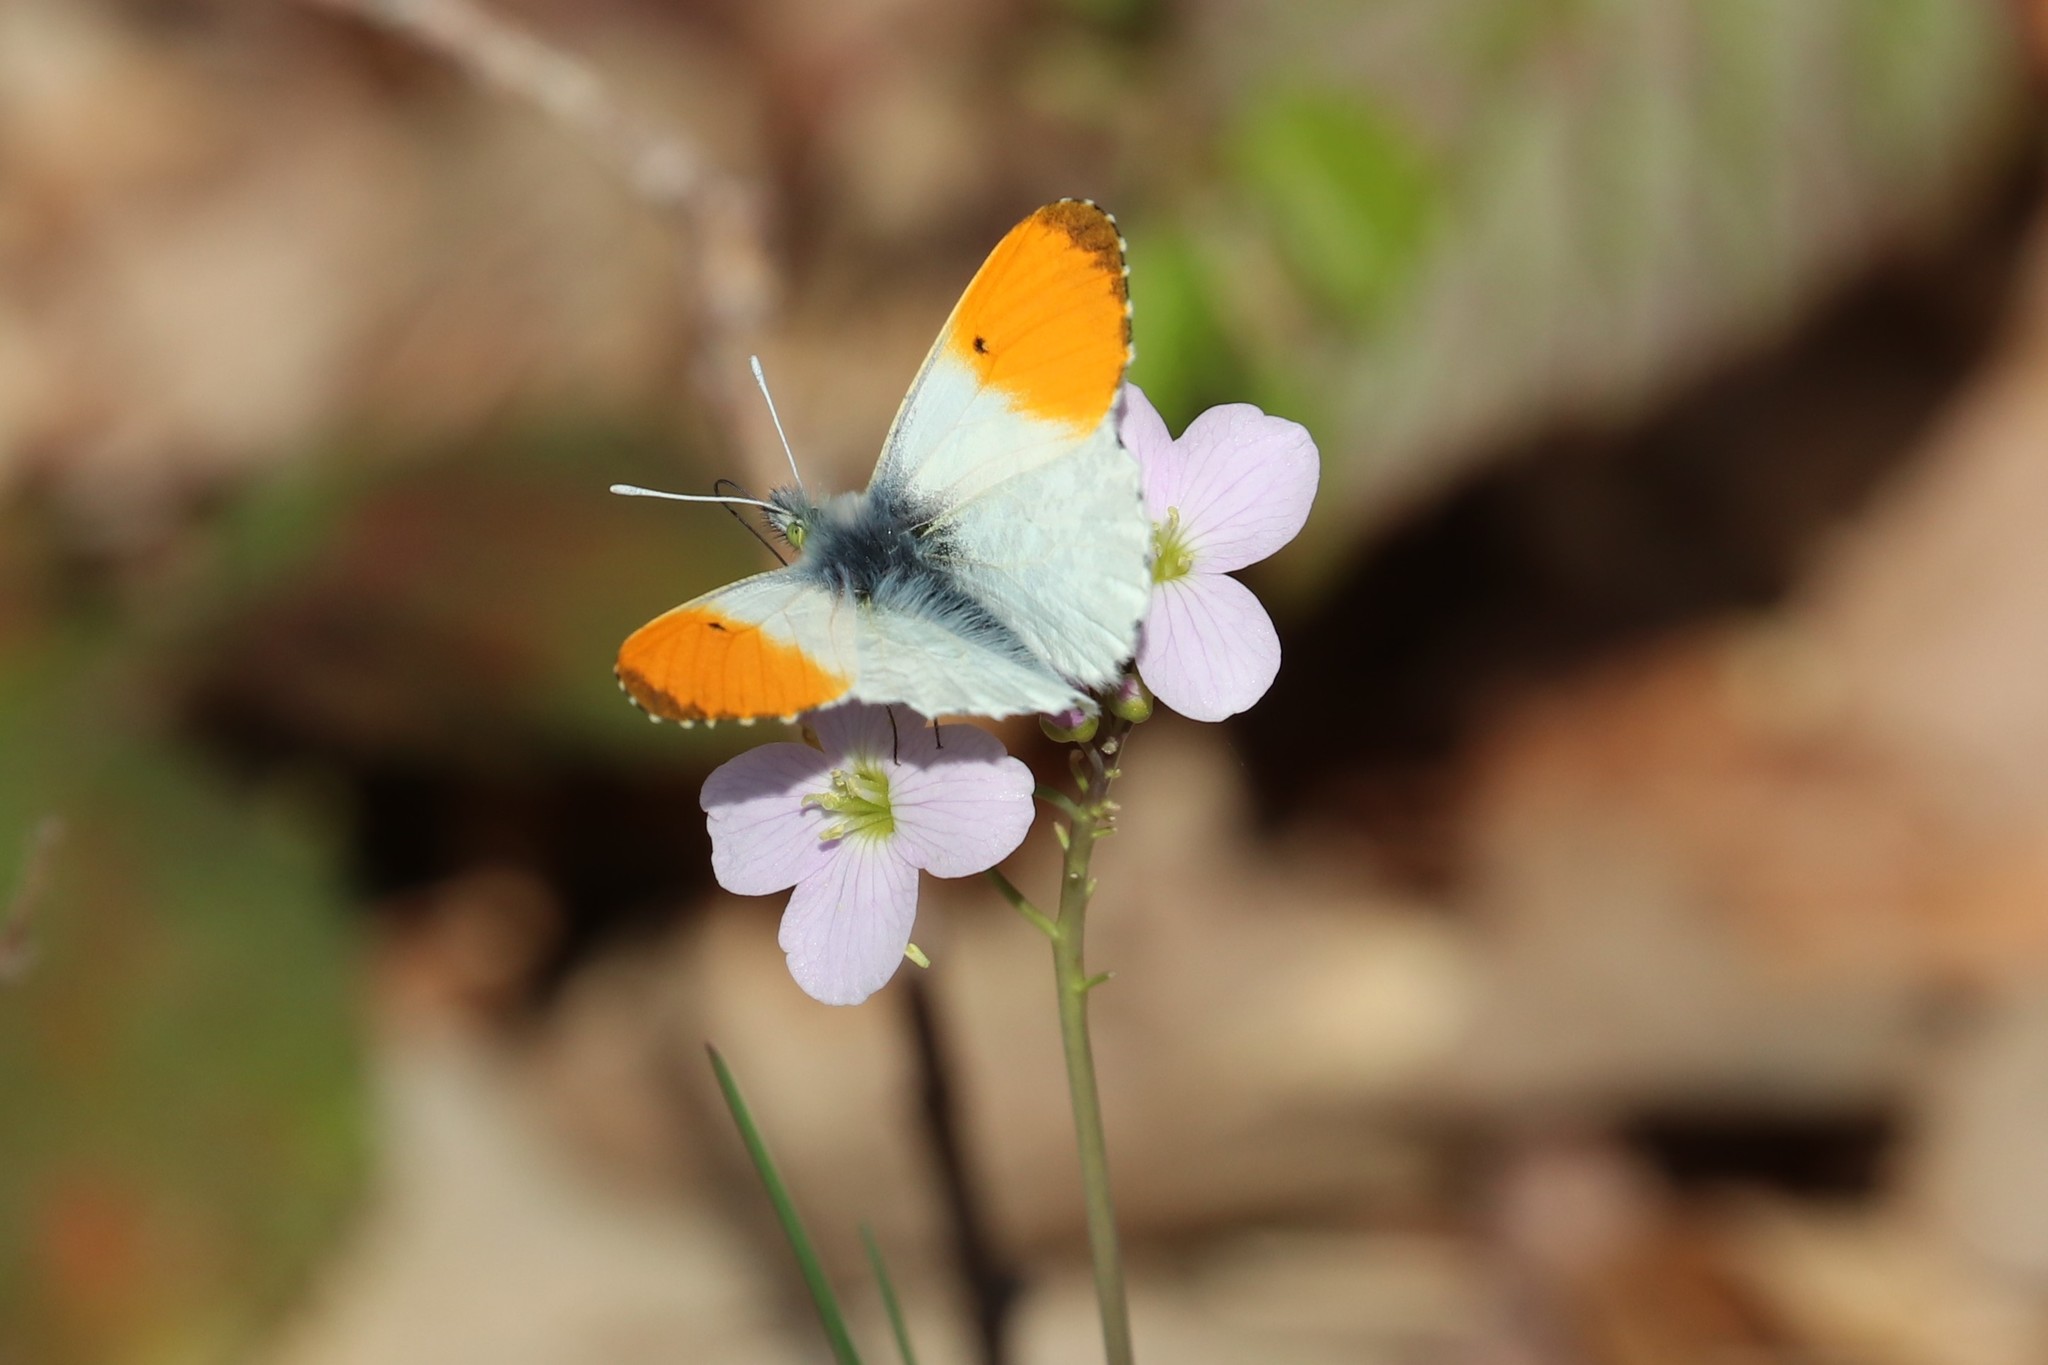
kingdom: Animalia
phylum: Arthropoda
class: Insecta
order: Lepidoptera
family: Pieridae
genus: Anthocharis
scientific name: Anthocharis cardamines
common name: Orange-tip
